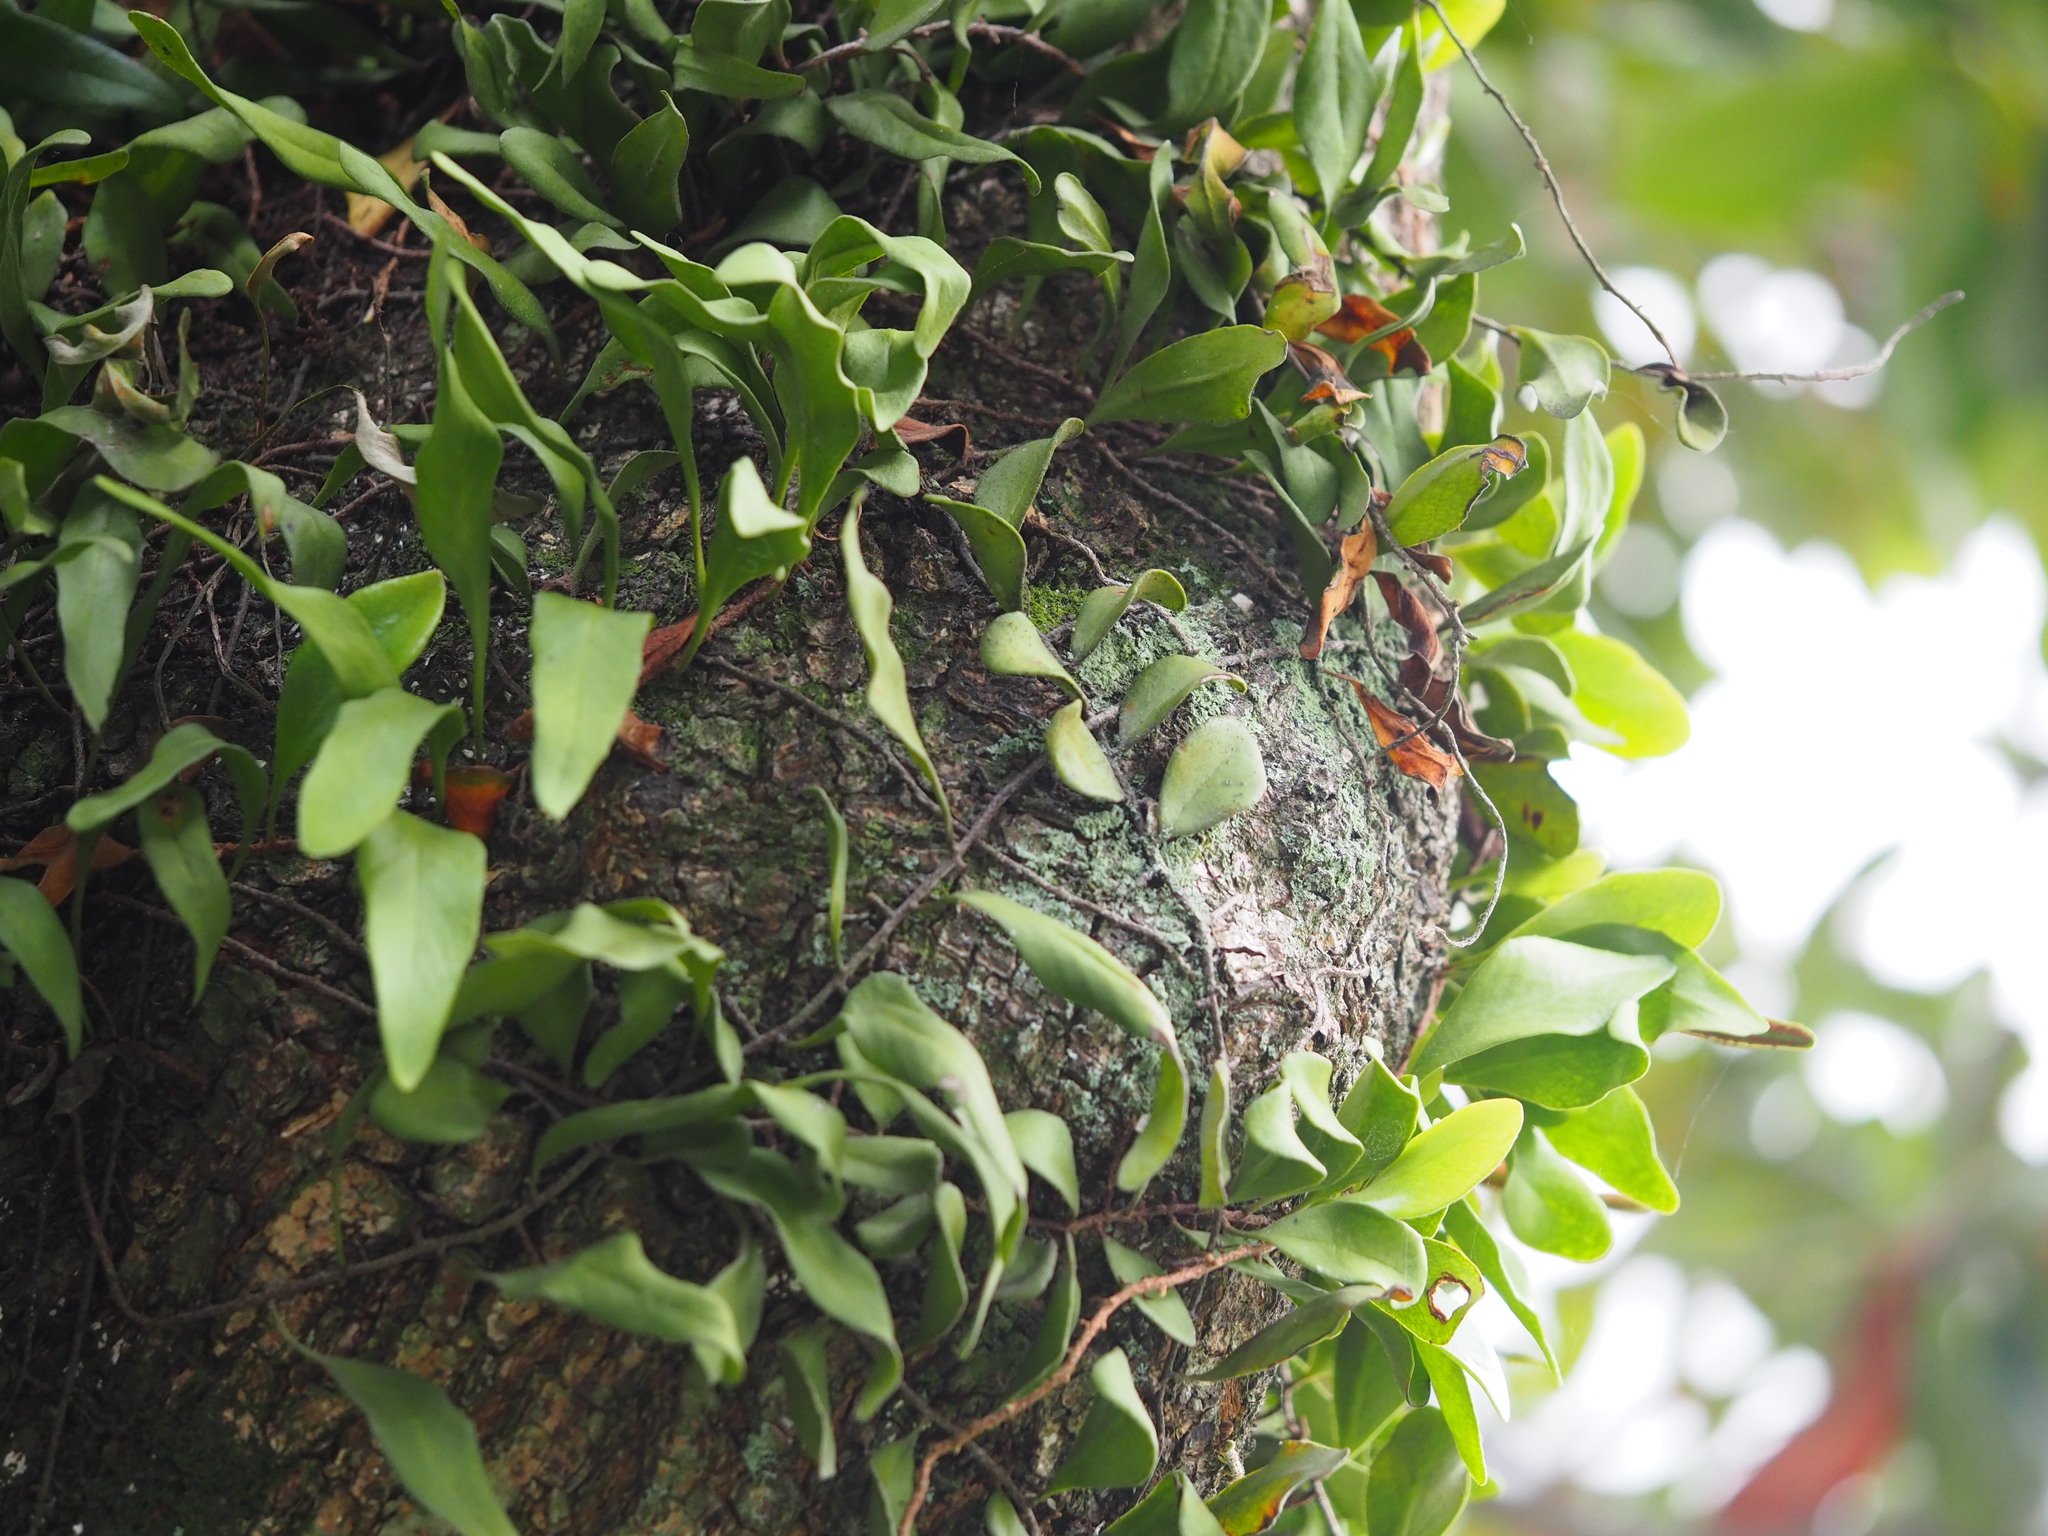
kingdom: Plantae
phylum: Tracheophyta
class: Polypodiopsida
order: Polypodiales
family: Polypodiaceae
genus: Pyrrosia
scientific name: Pyrrosia lanceolata
